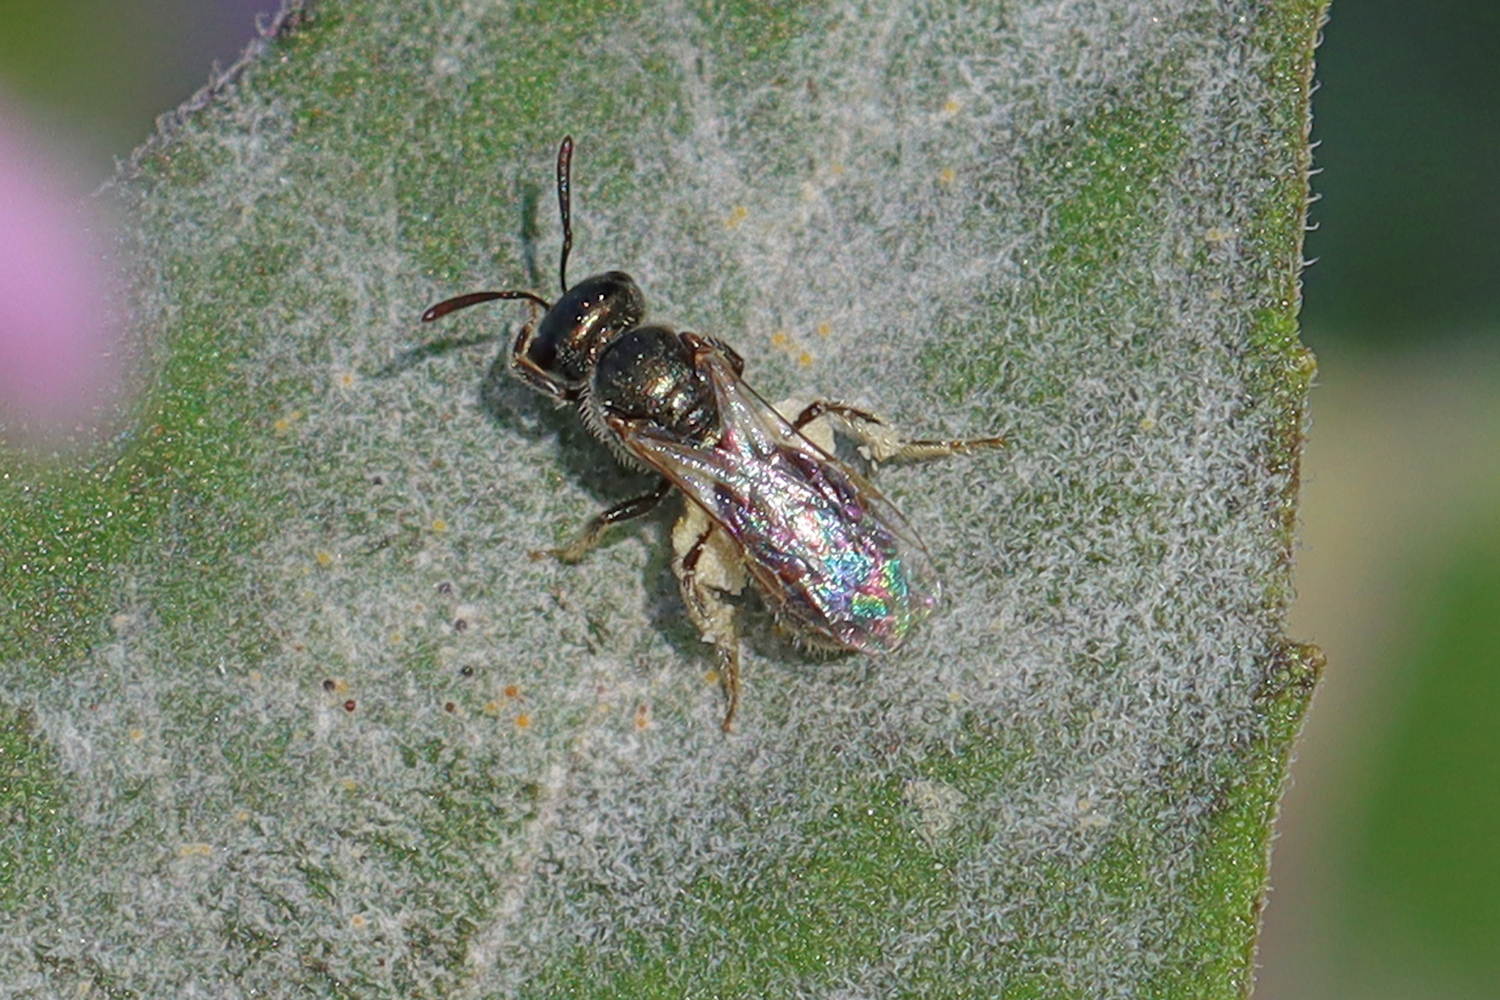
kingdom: Animalia
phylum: Arthropoda
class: Insecta
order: Hymenoptera
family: Halictidae
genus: Dialictus
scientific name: Dialictus
